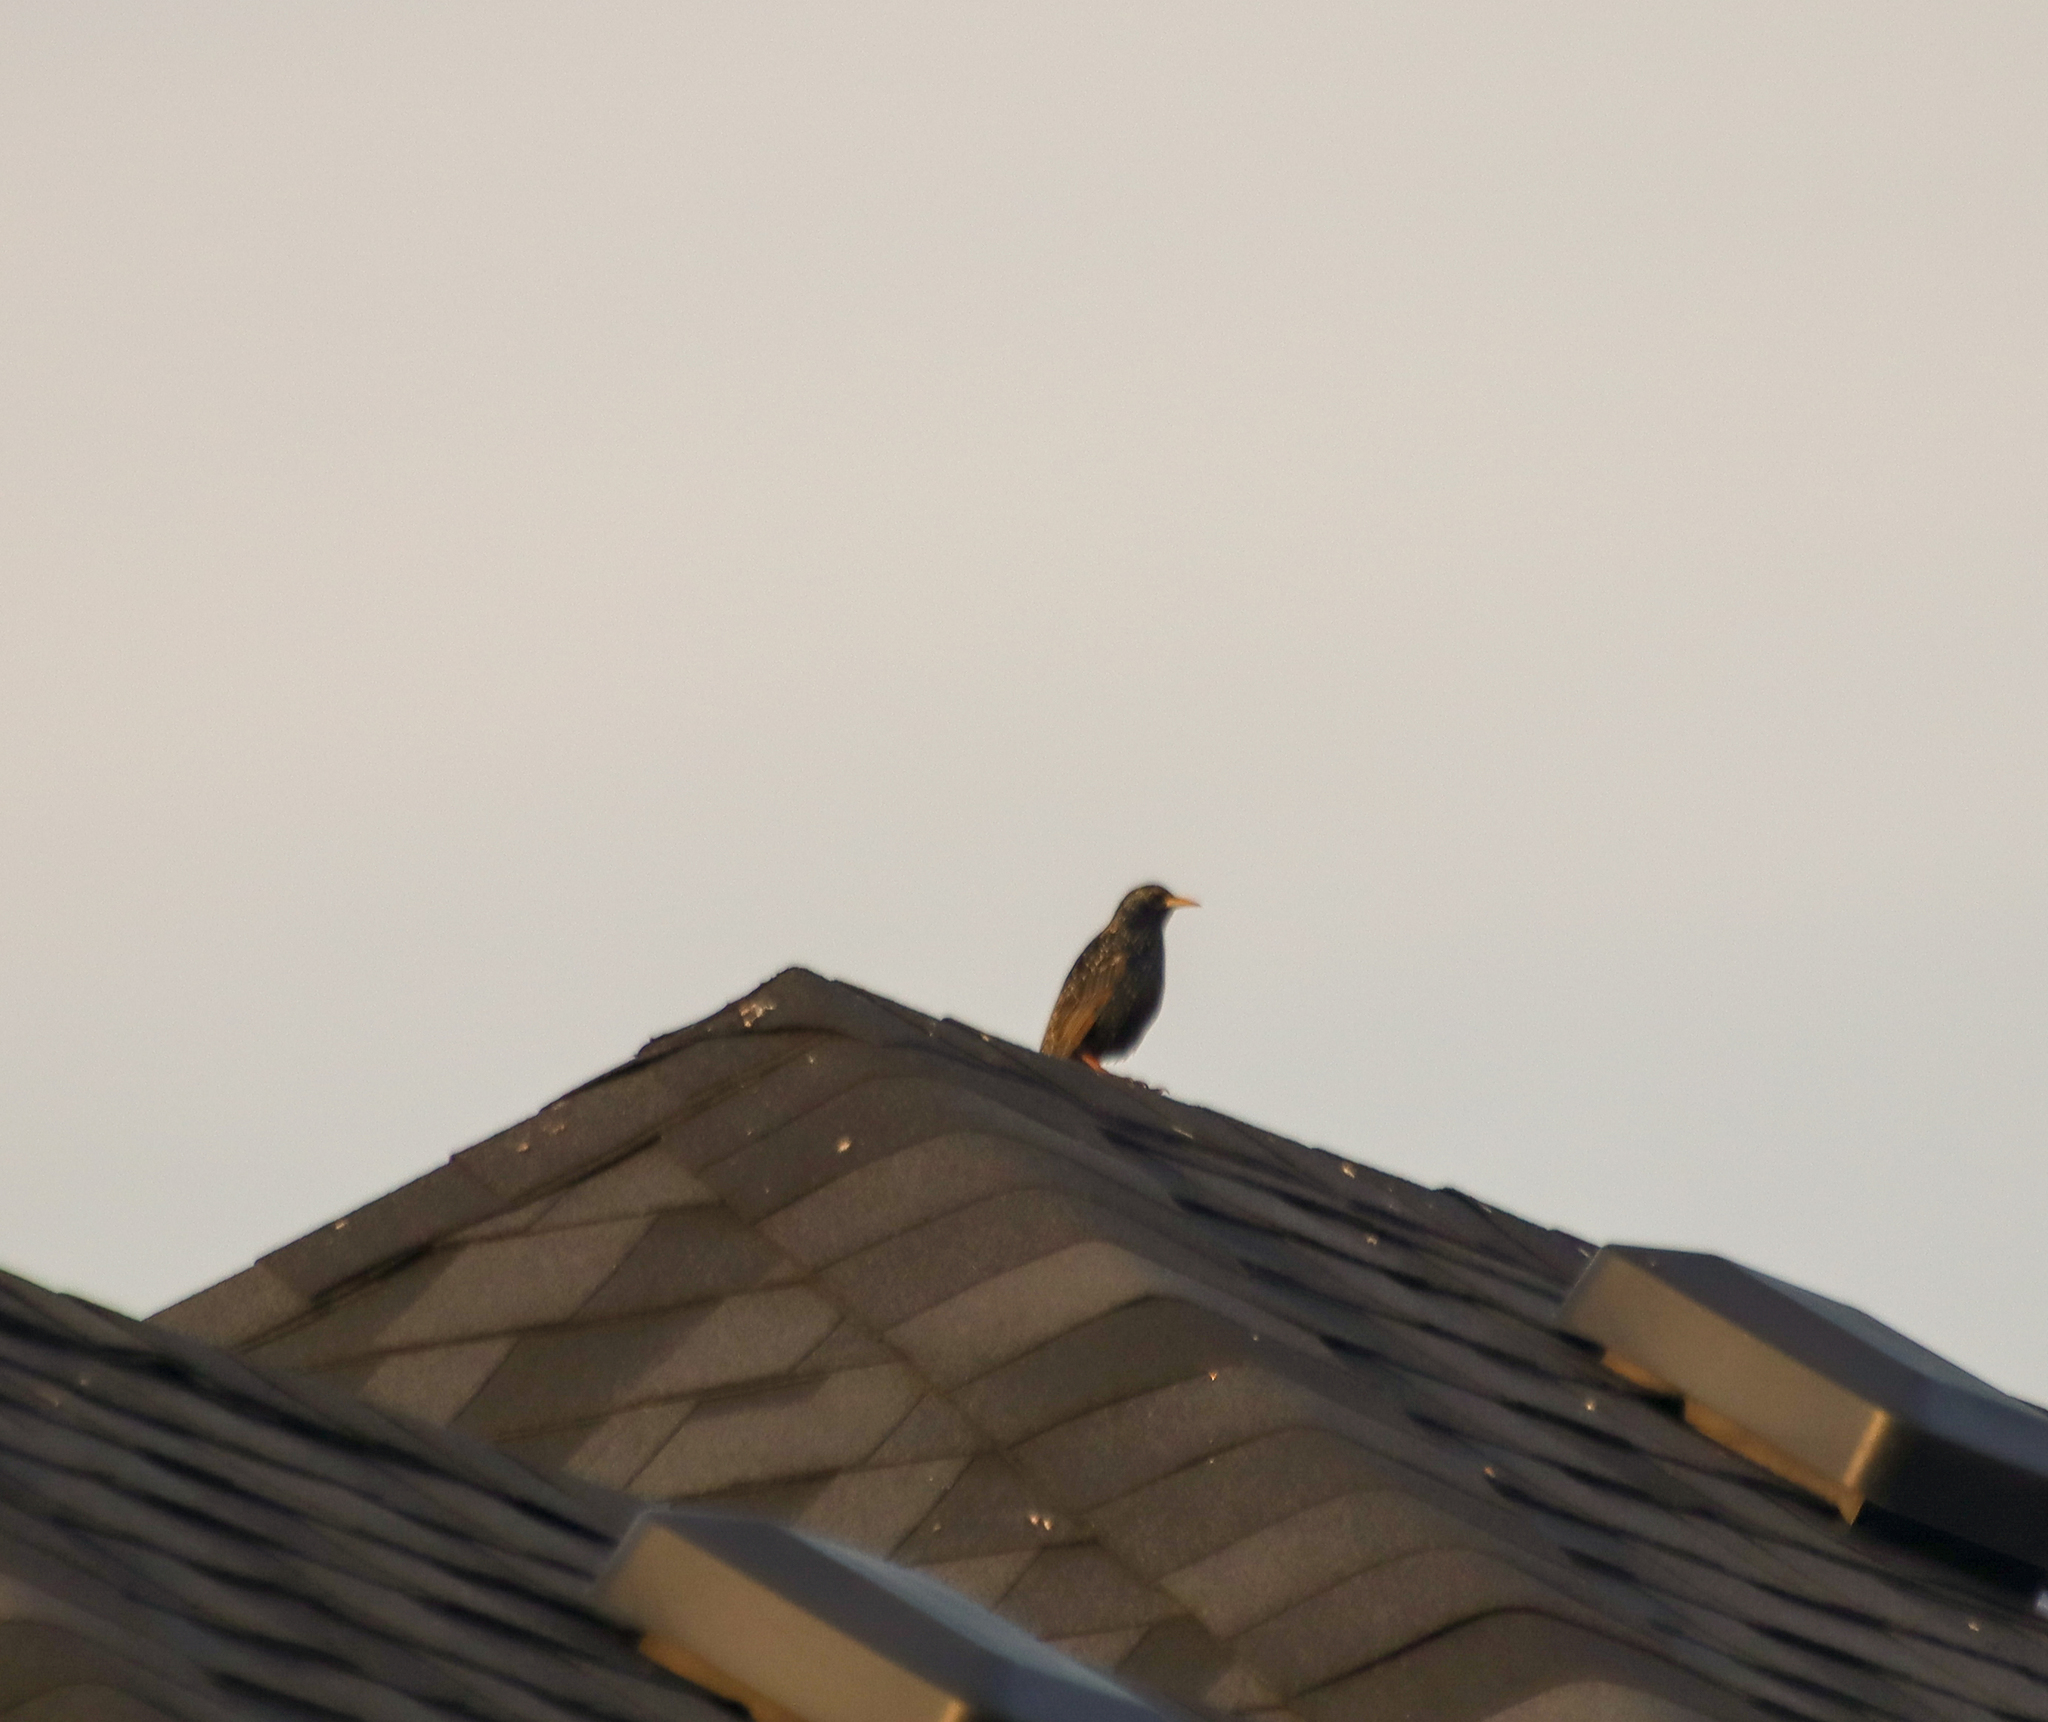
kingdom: Animalia
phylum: Chordata
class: Aves
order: Passeriformes
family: Sturnidae
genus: Sturnus
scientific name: Sturnus vulgaris
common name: Common starling
